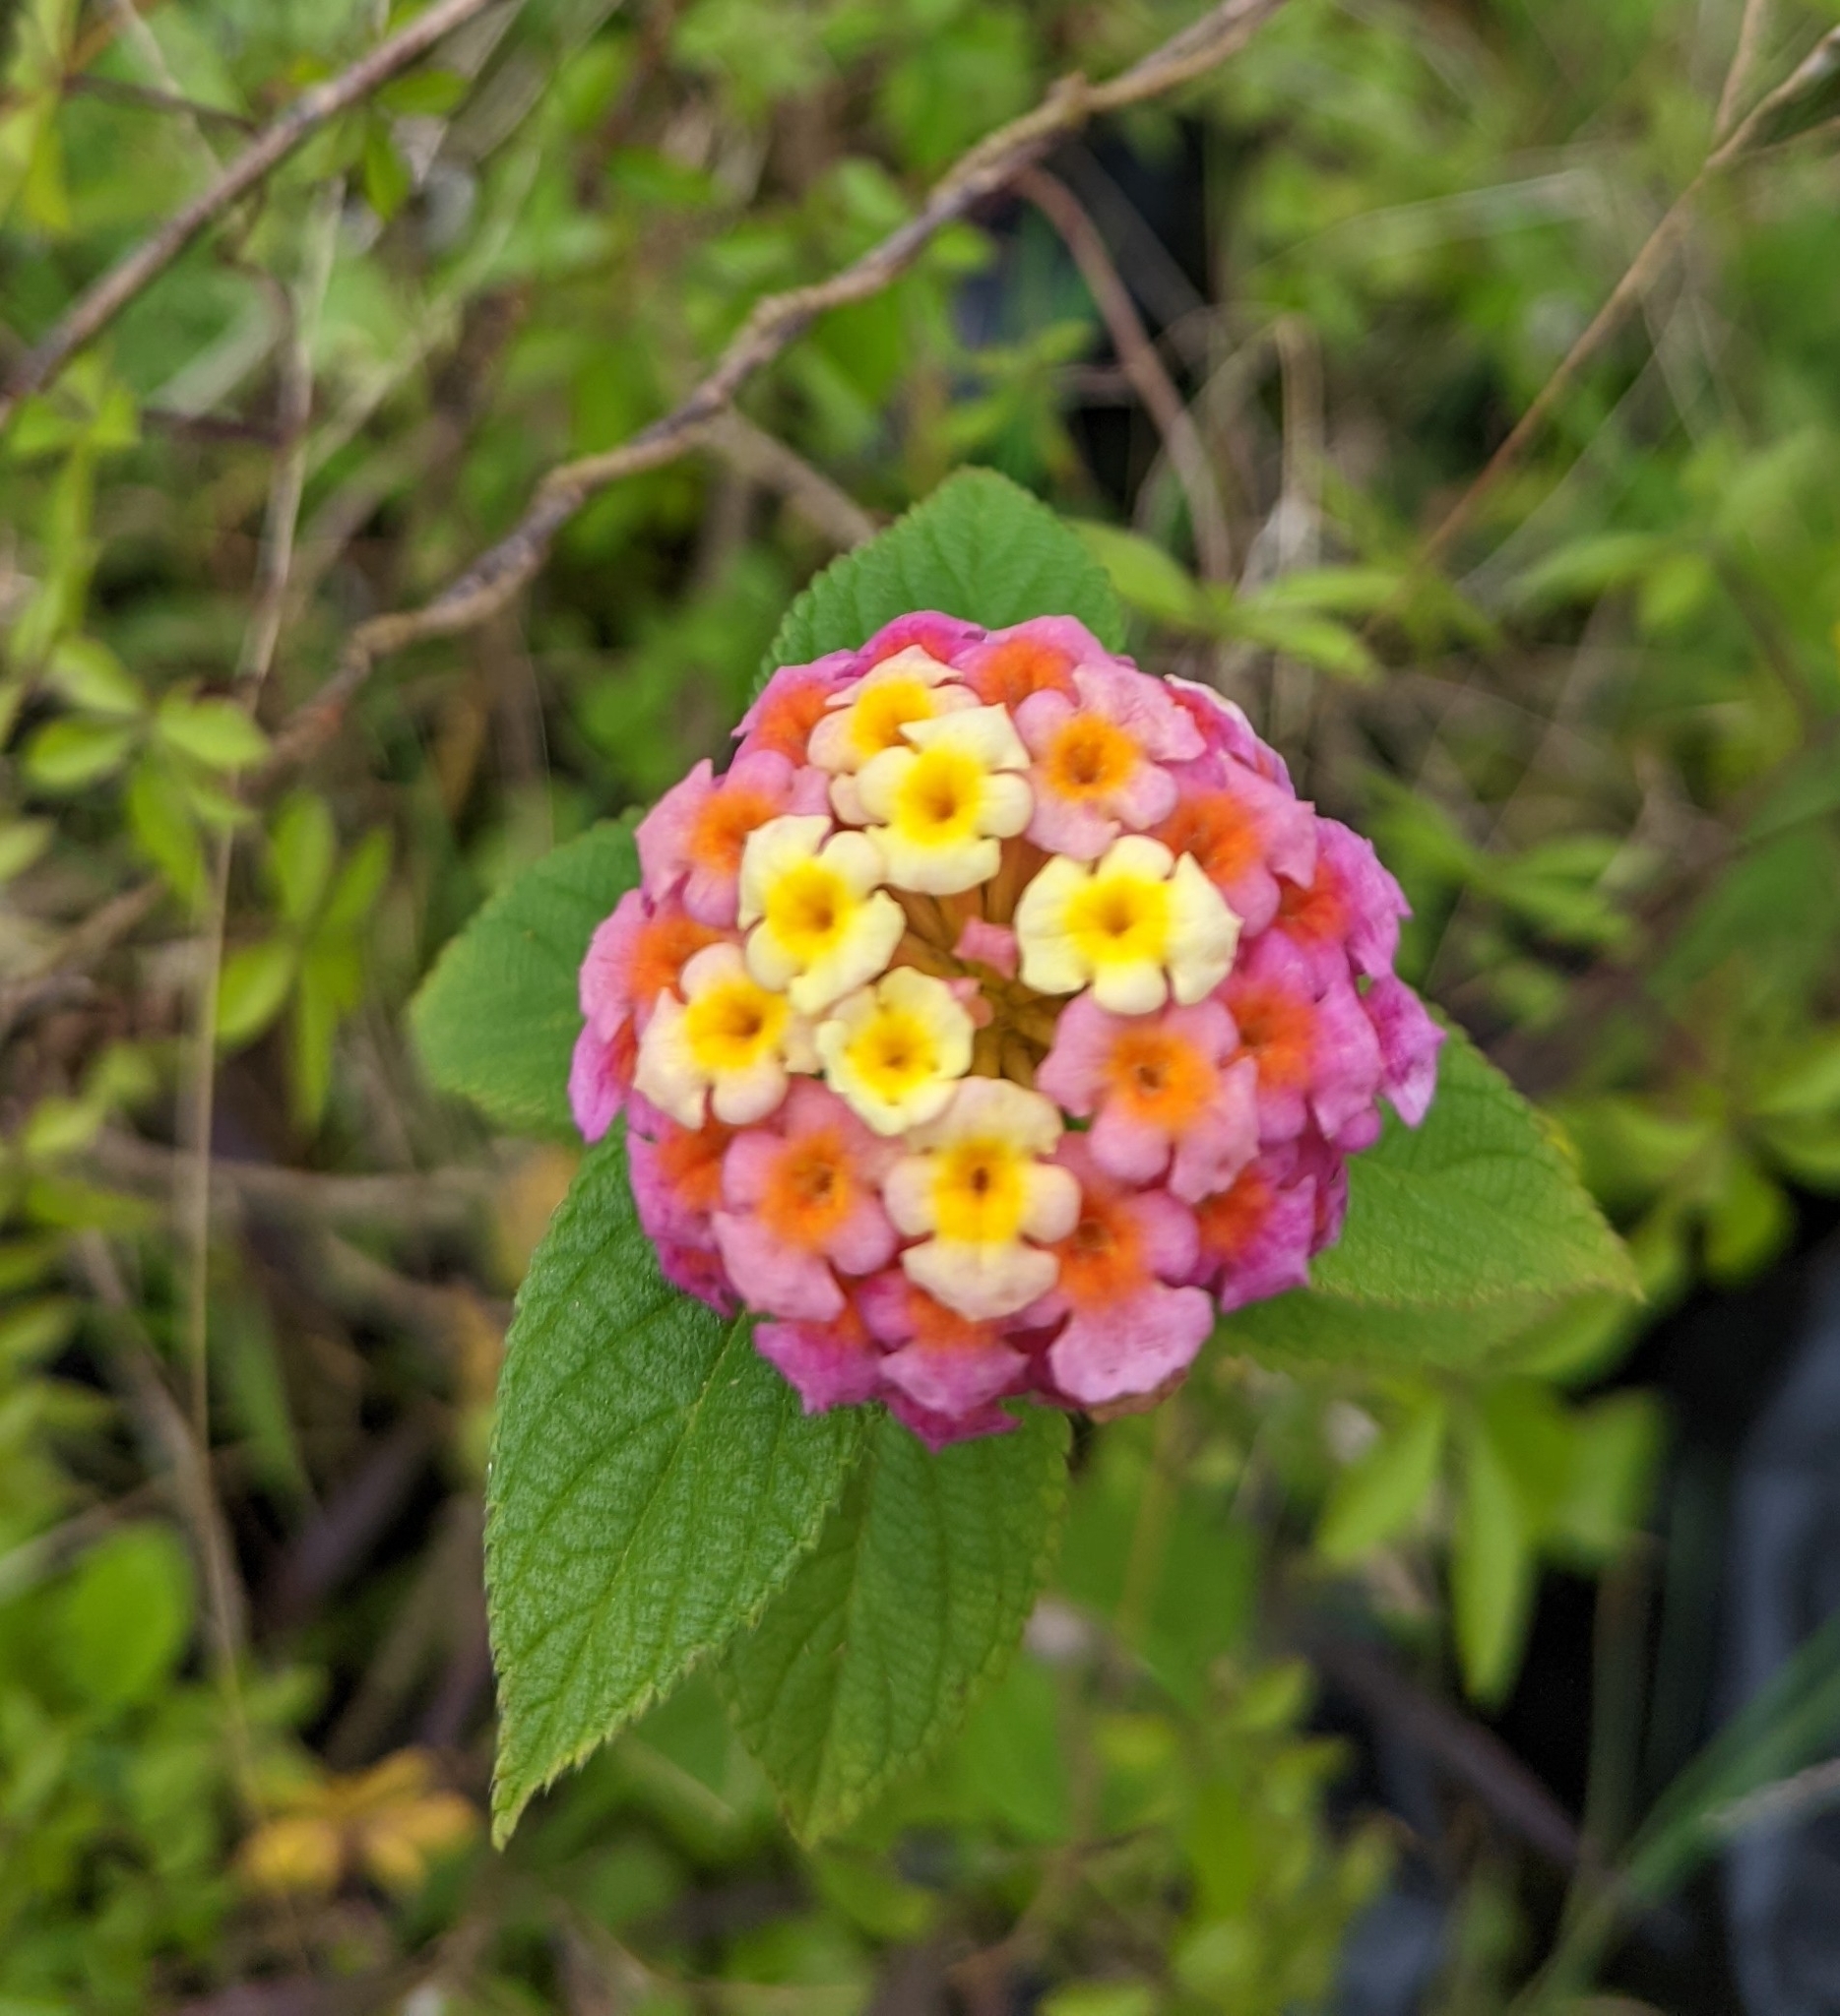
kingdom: Plantae
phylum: Tracheophyta
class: Magnoliopsida
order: Lamiales
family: Verbenaceae
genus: Lantana
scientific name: Lantana camara
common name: Lantana
